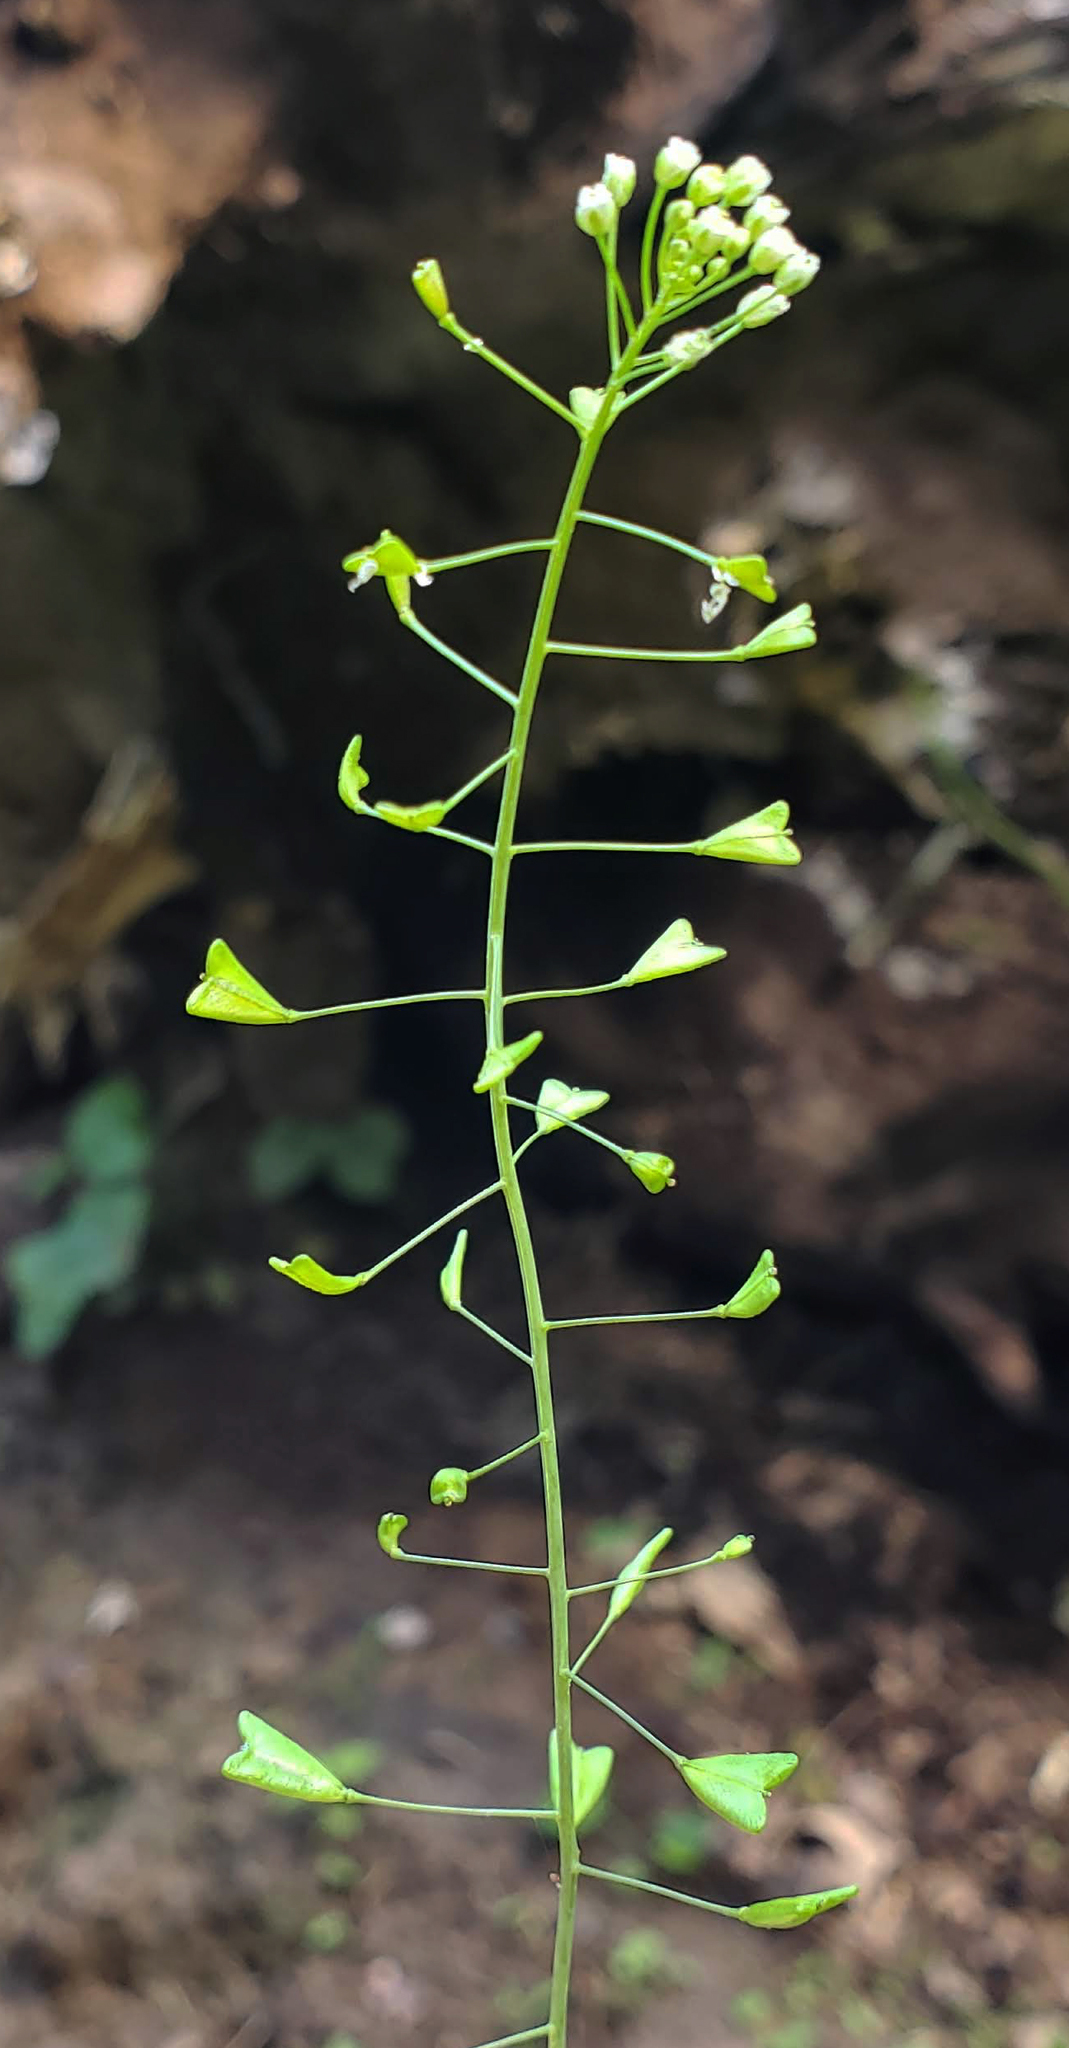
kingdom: Plantae
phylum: Tracheophyta
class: Magnoliopsida
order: Brassicales
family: Brassicaceae
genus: Capsella
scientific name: Capsella bursa-pastoris
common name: Shepherd's purse
